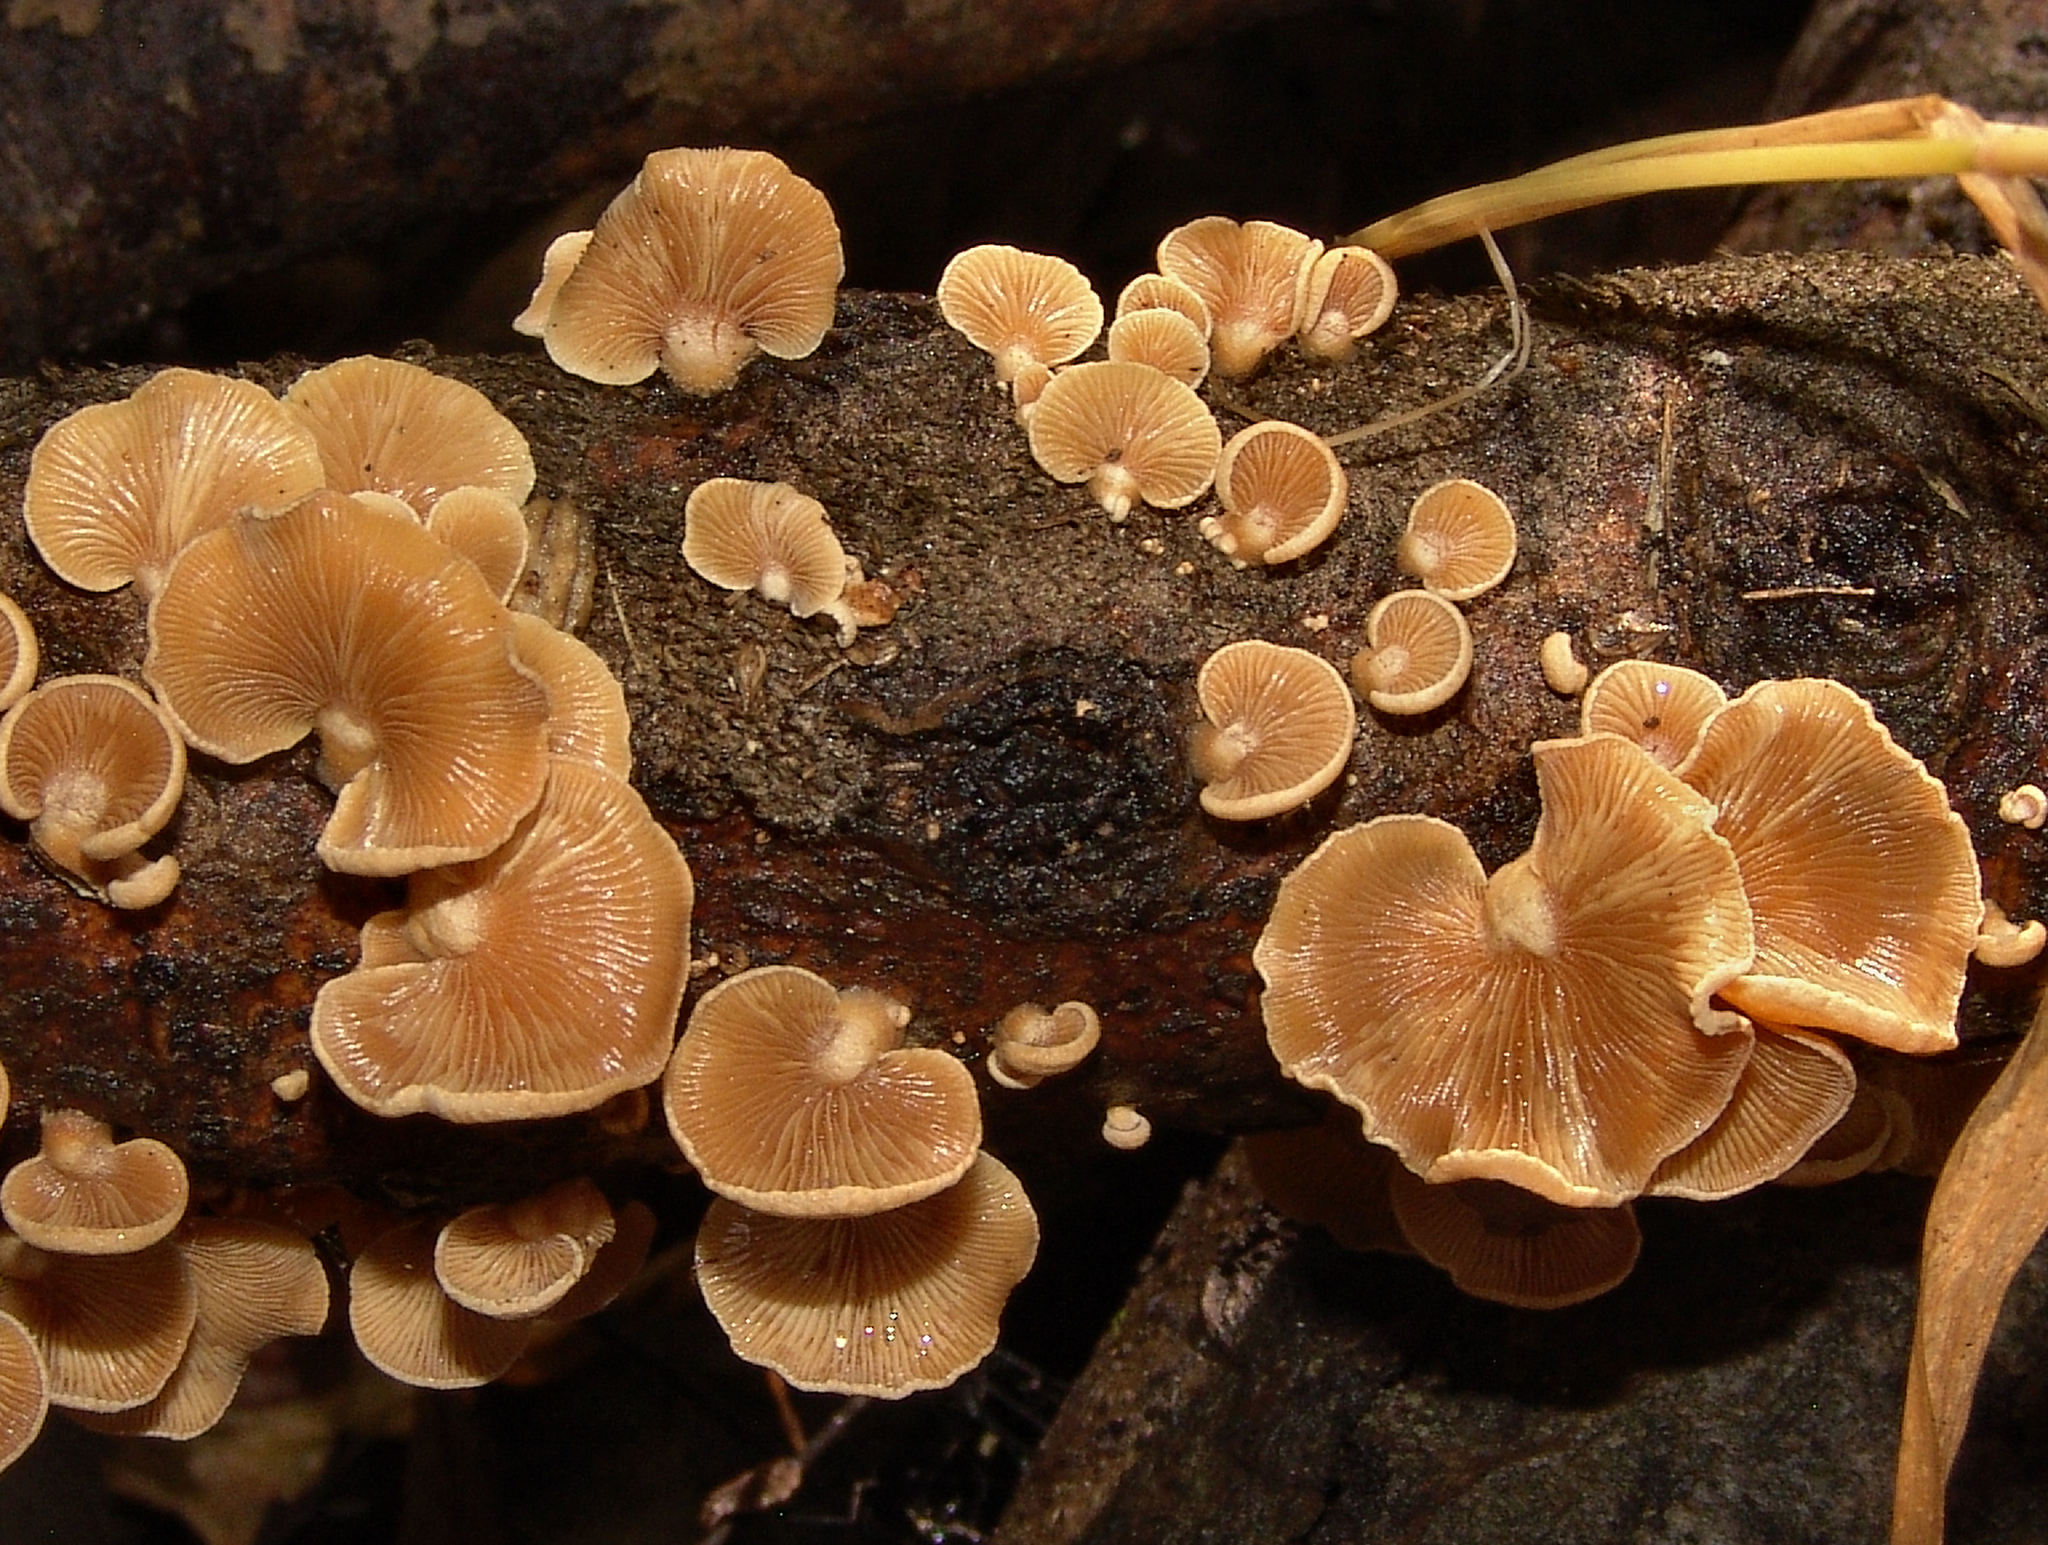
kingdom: Fungi
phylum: Basidiomycota
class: Agaricomycetes
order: Agaricales
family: Mycenaceae
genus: Panellus
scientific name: Panellus stipticus
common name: Bitter oysterling
